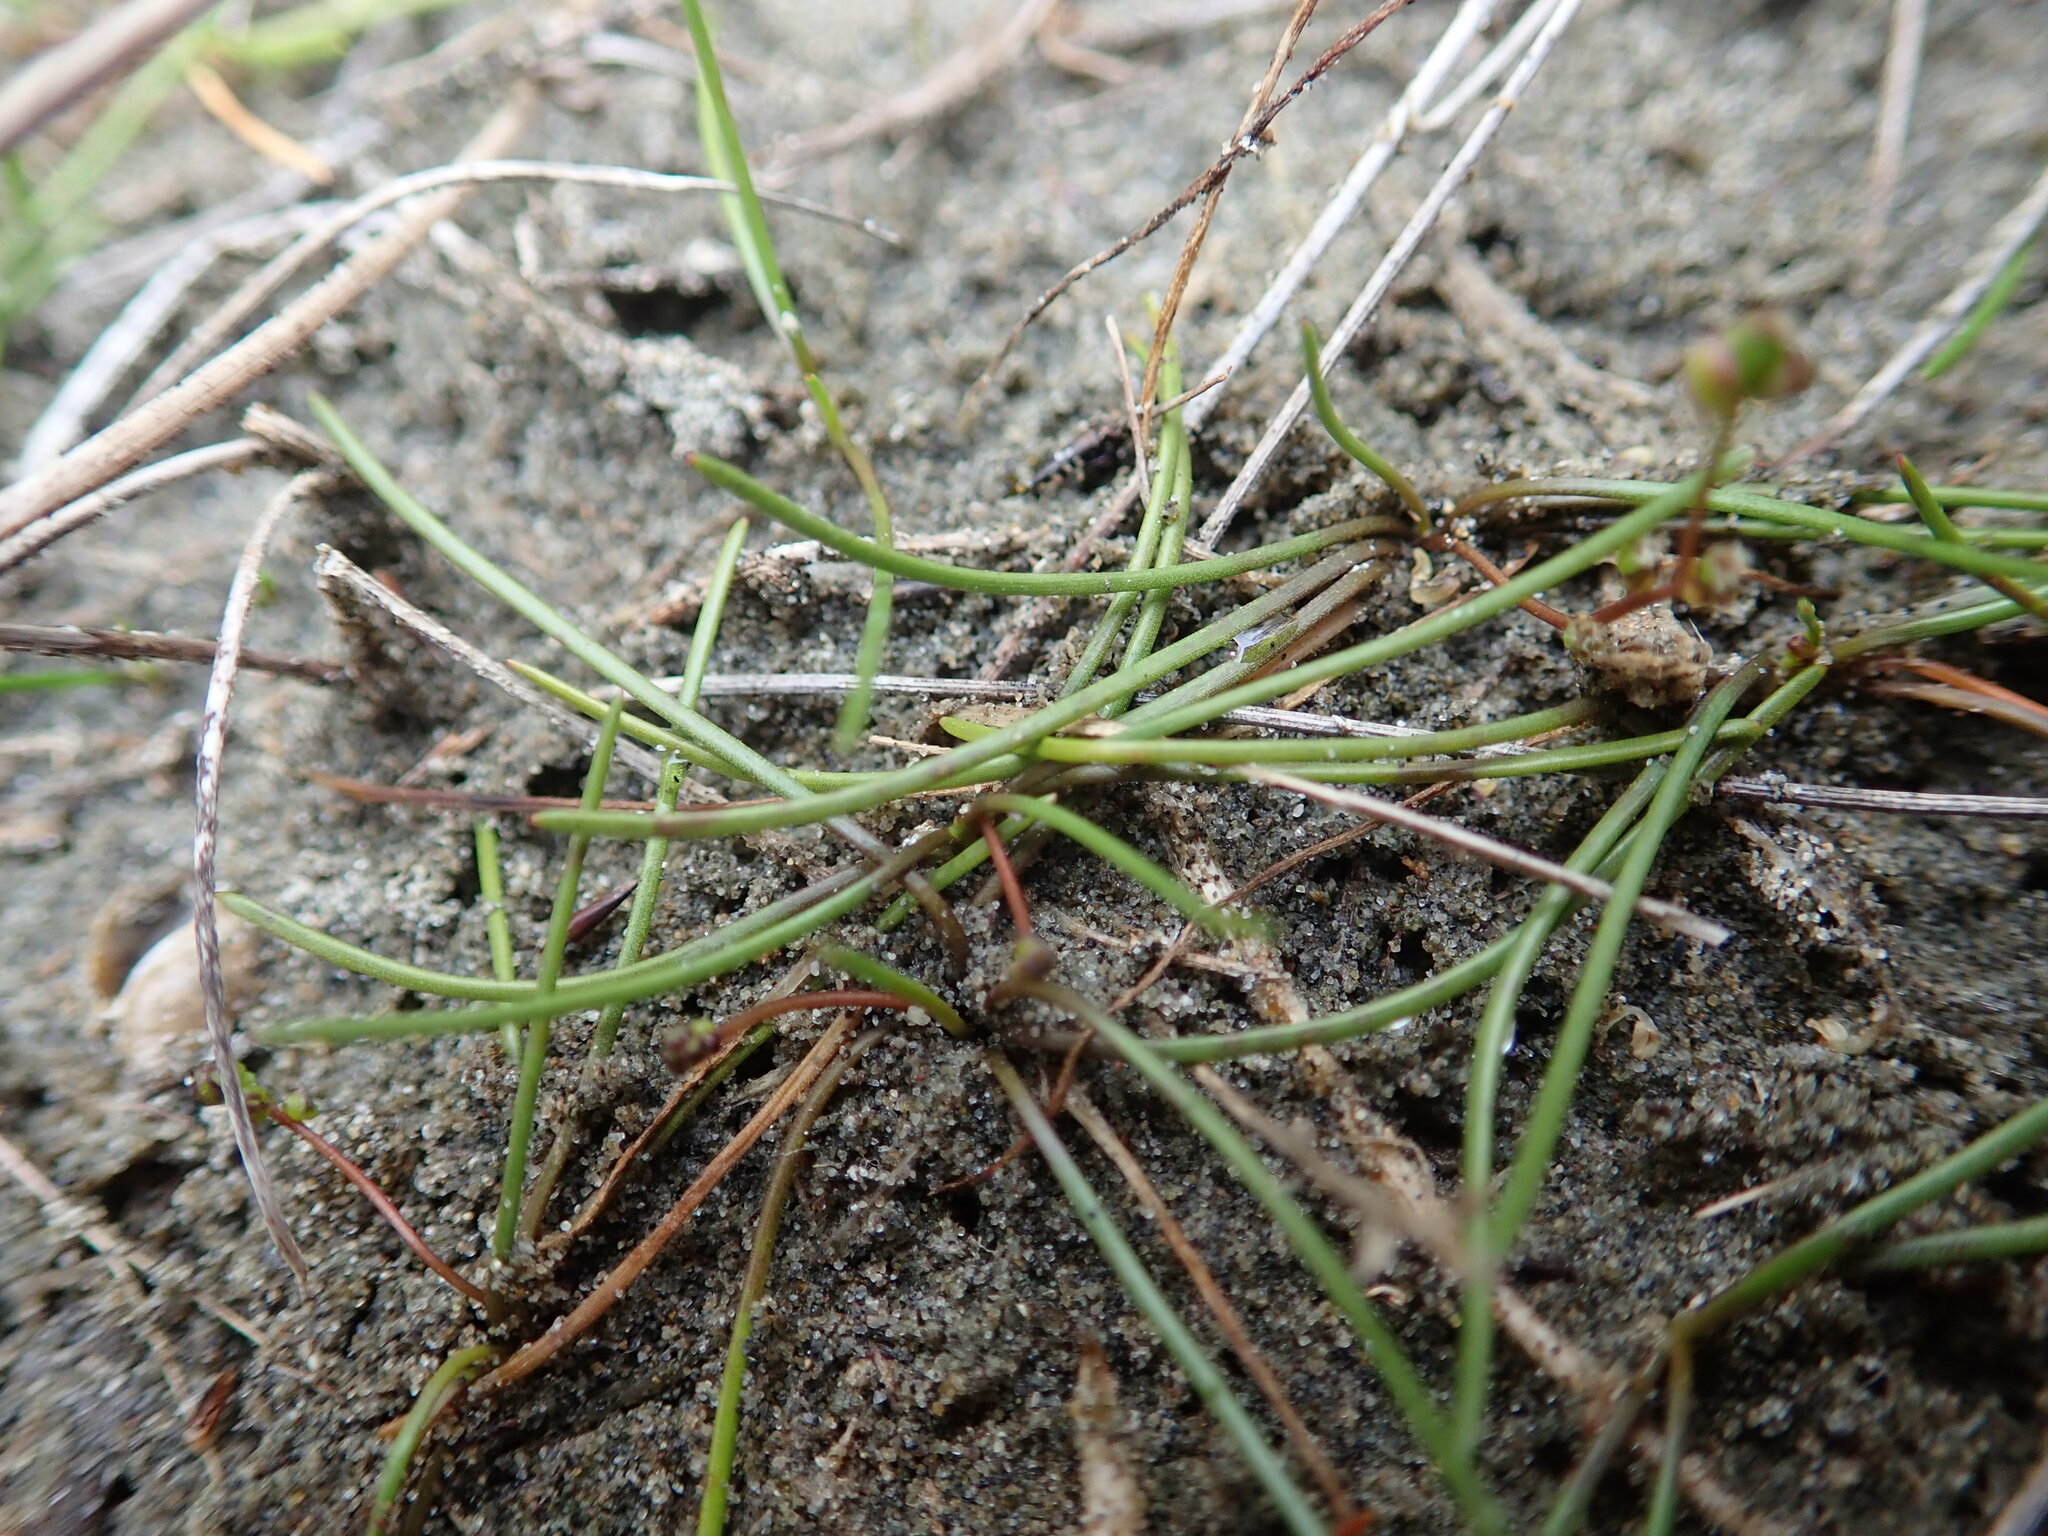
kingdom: Plantae
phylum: Tracheophyta
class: Liliopsida
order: Alismatales
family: Juncaginaceae
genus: Triglochin
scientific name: Triglochin striata
